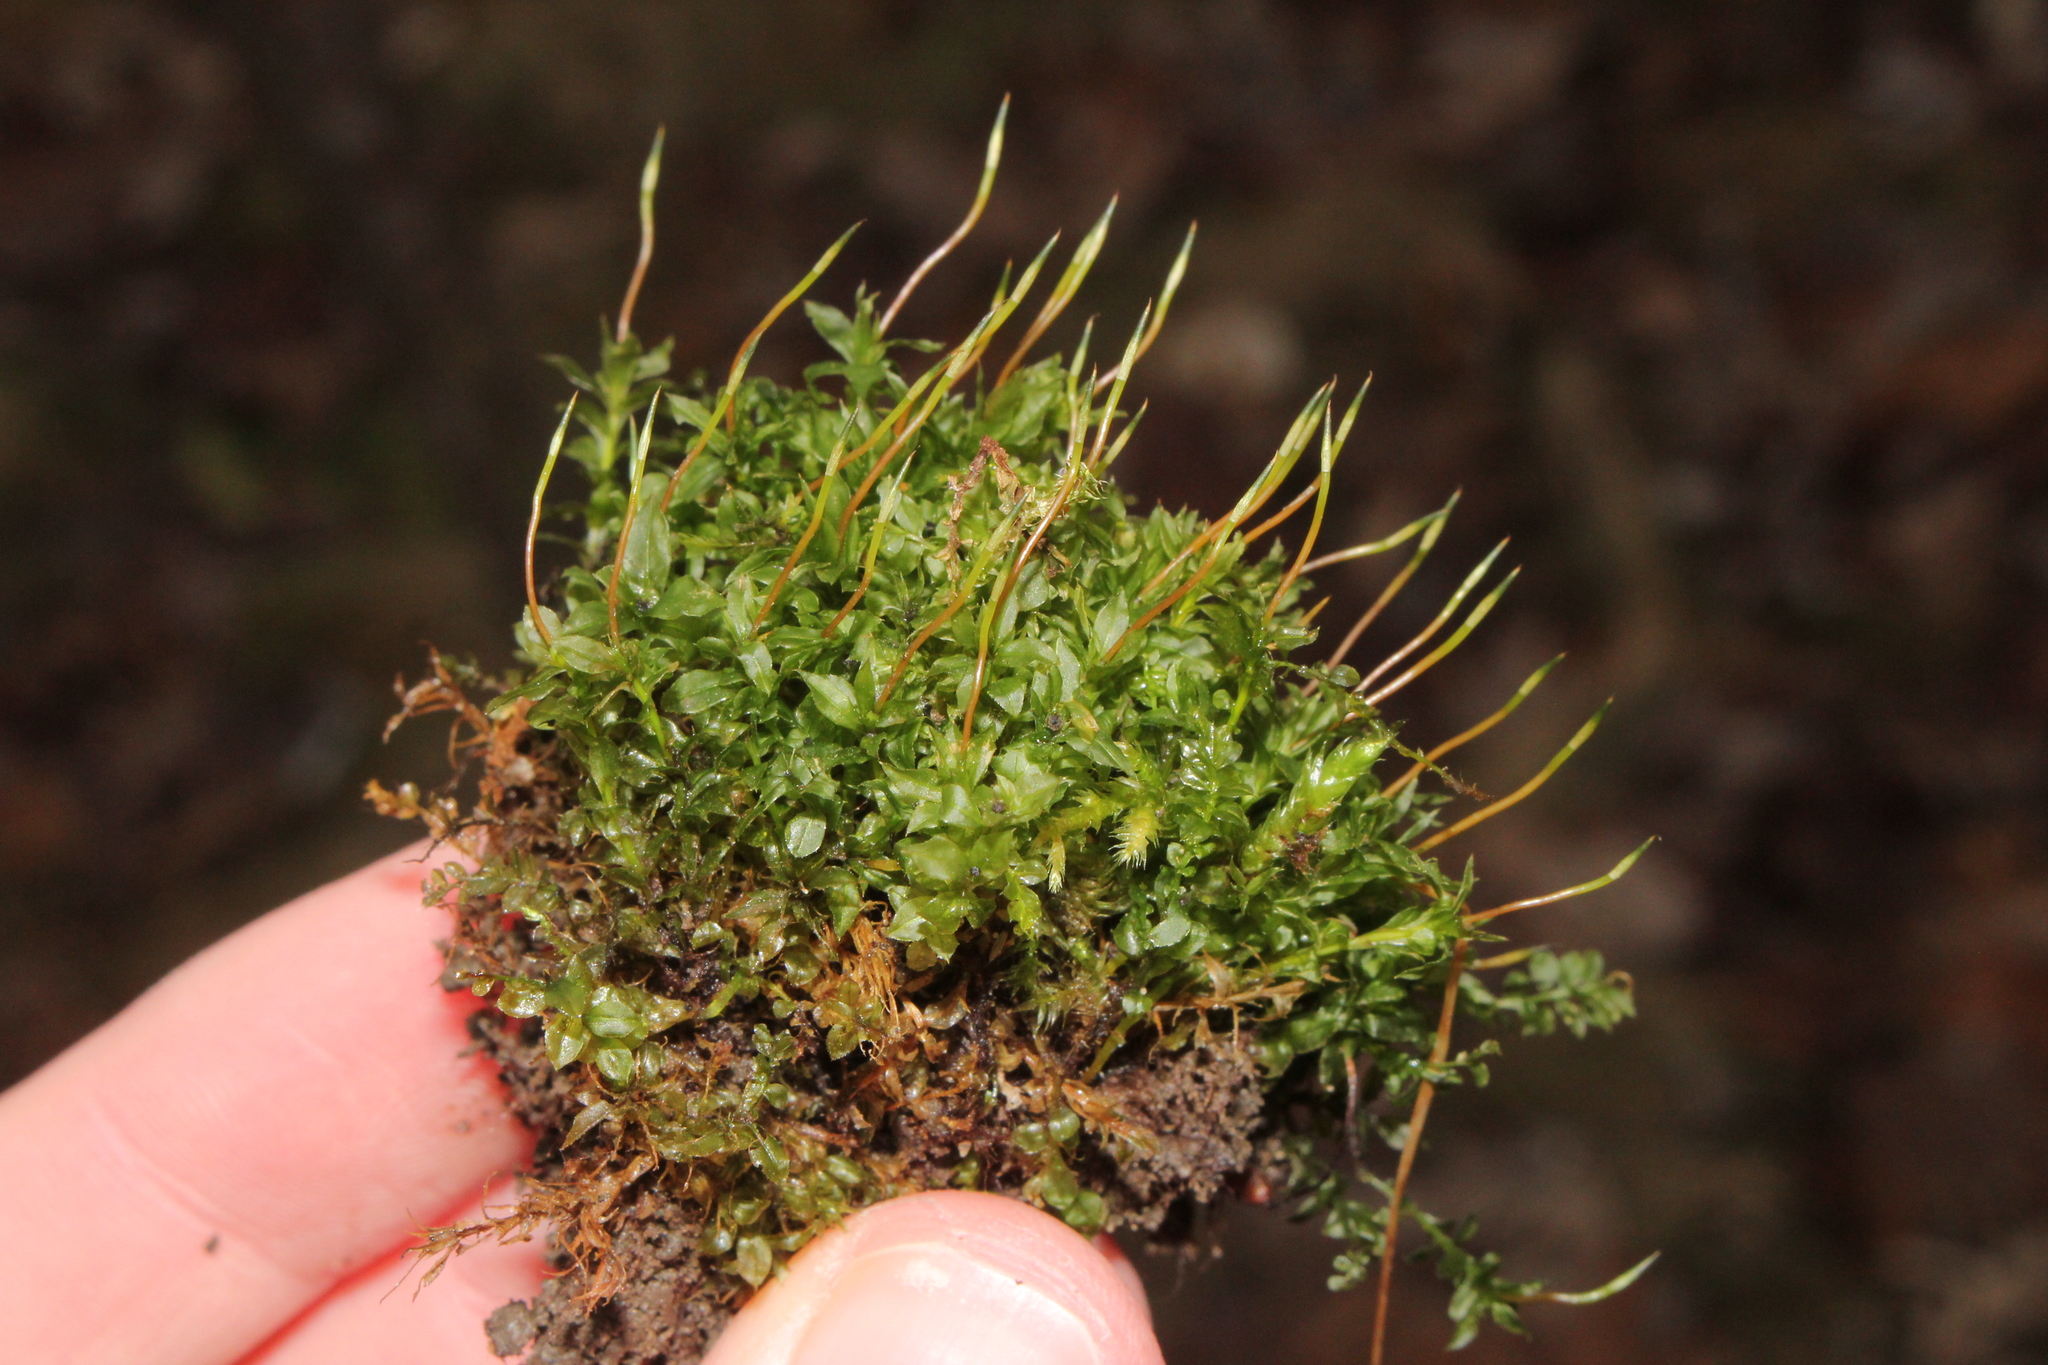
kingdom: Plantae
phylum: Bryophyta
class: Bryopsida
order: Bryales
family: Mniaceae
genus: Plagiomnium
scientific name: Plagiomnium cuspidatum
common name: Woodsy leafy moss
